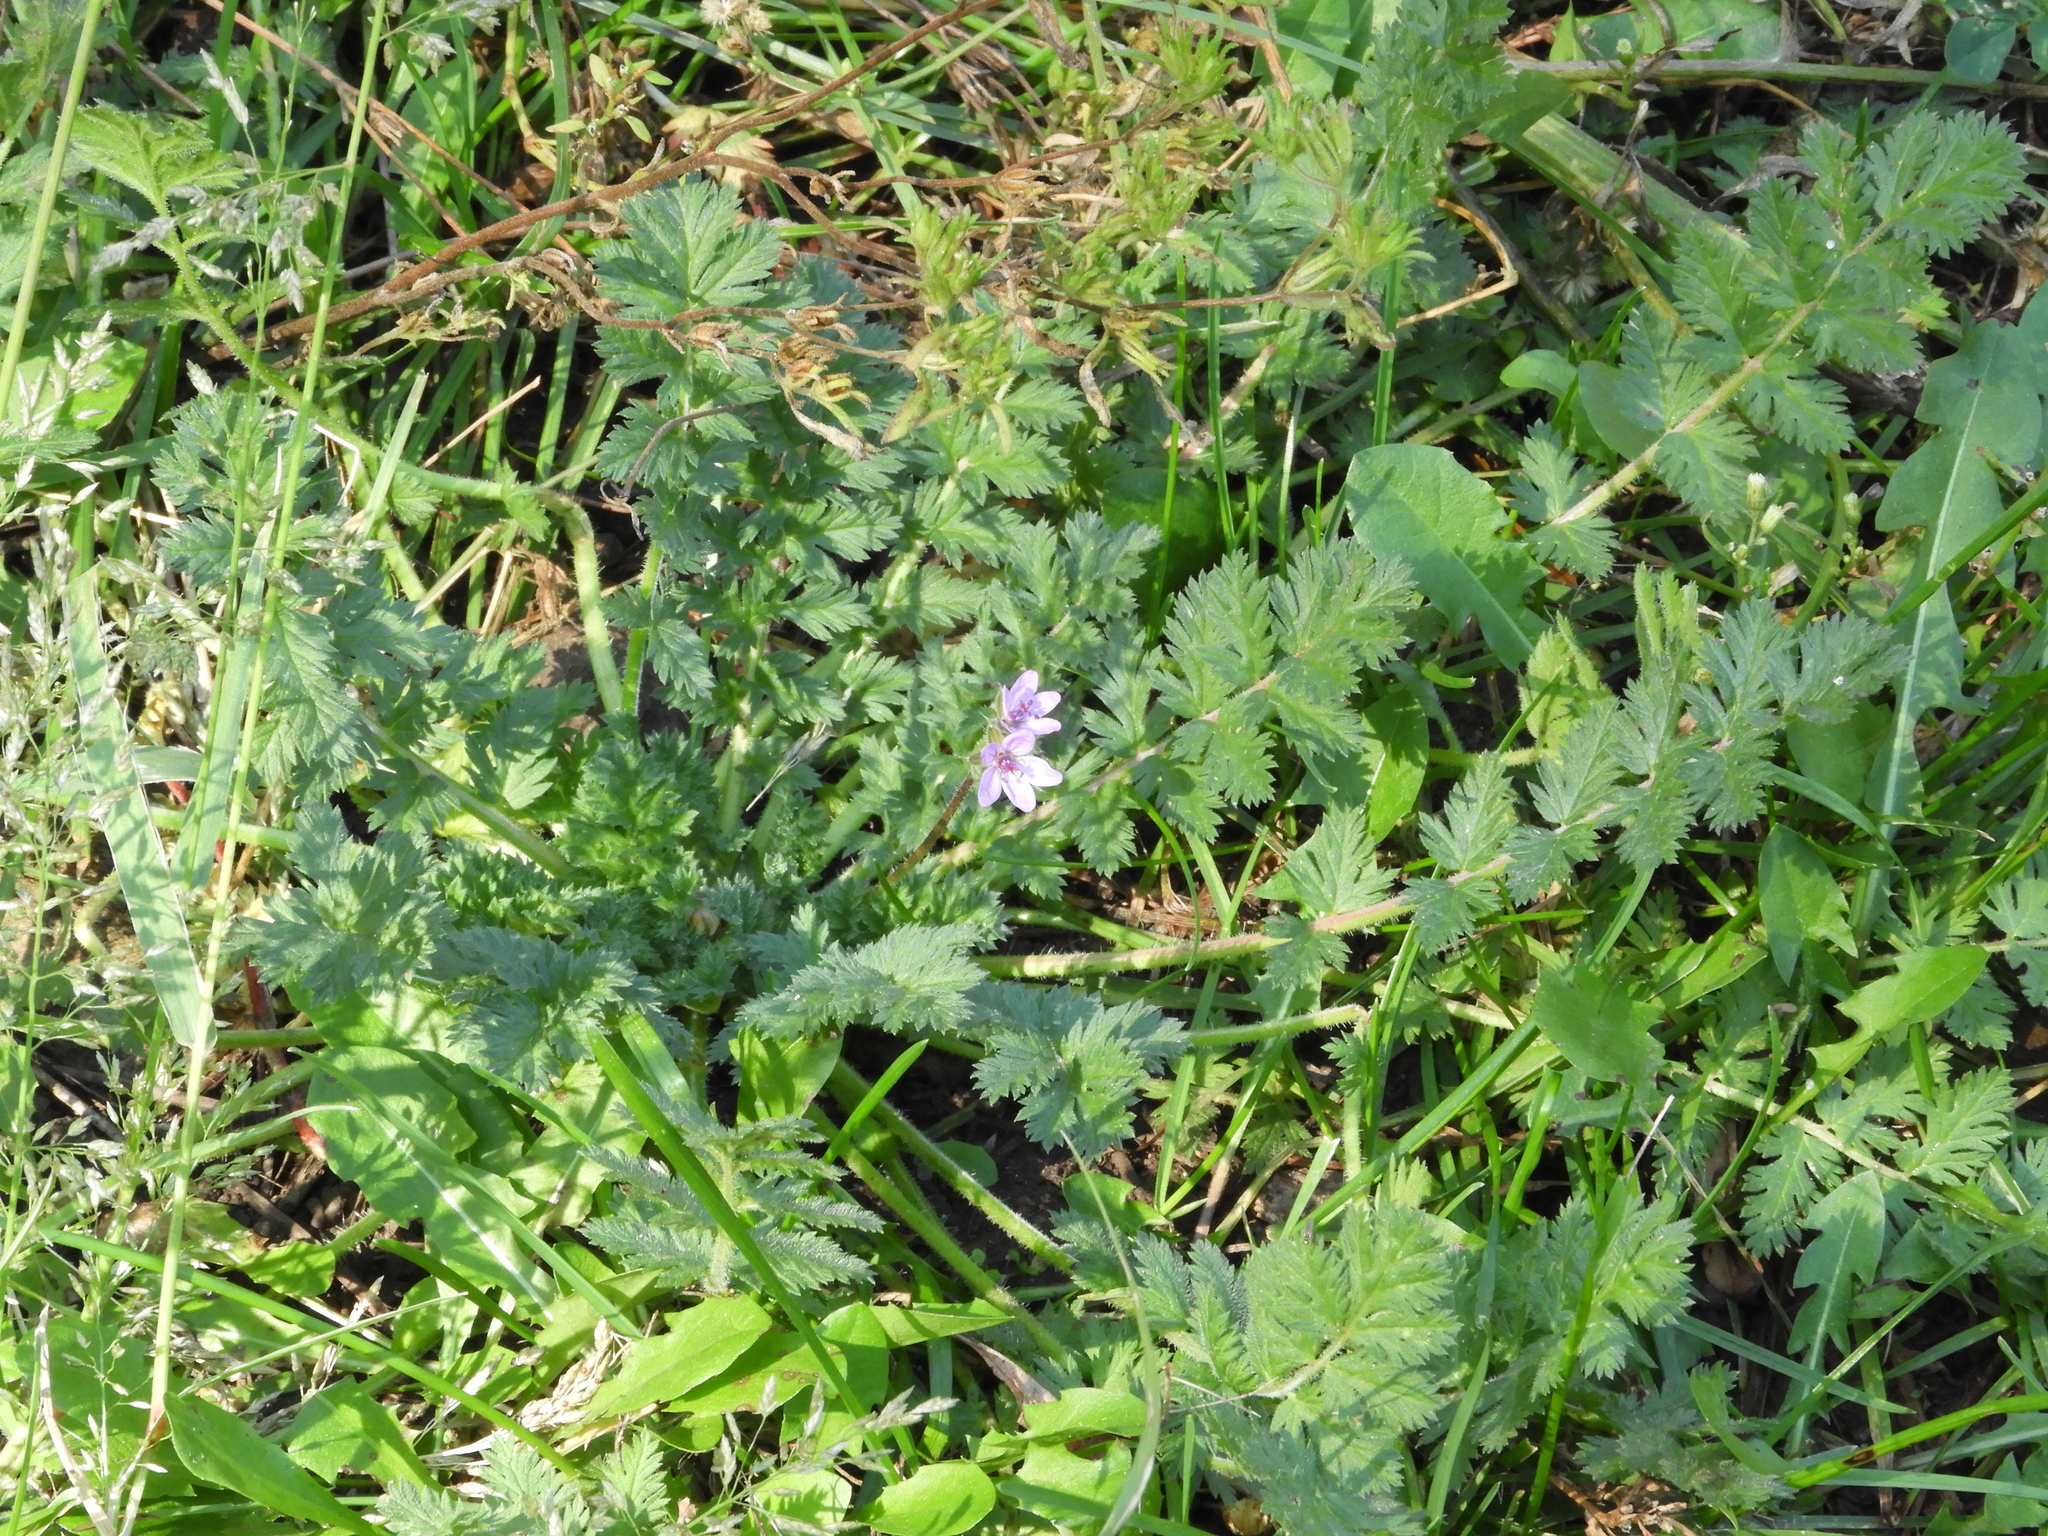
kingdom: Plantae
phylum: Tracheophyta
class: Magnoliopsida
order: Geraniales
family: Geraniaceae
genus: Erodium
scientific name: Erodium cicutarium
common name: Common stork's-bill
